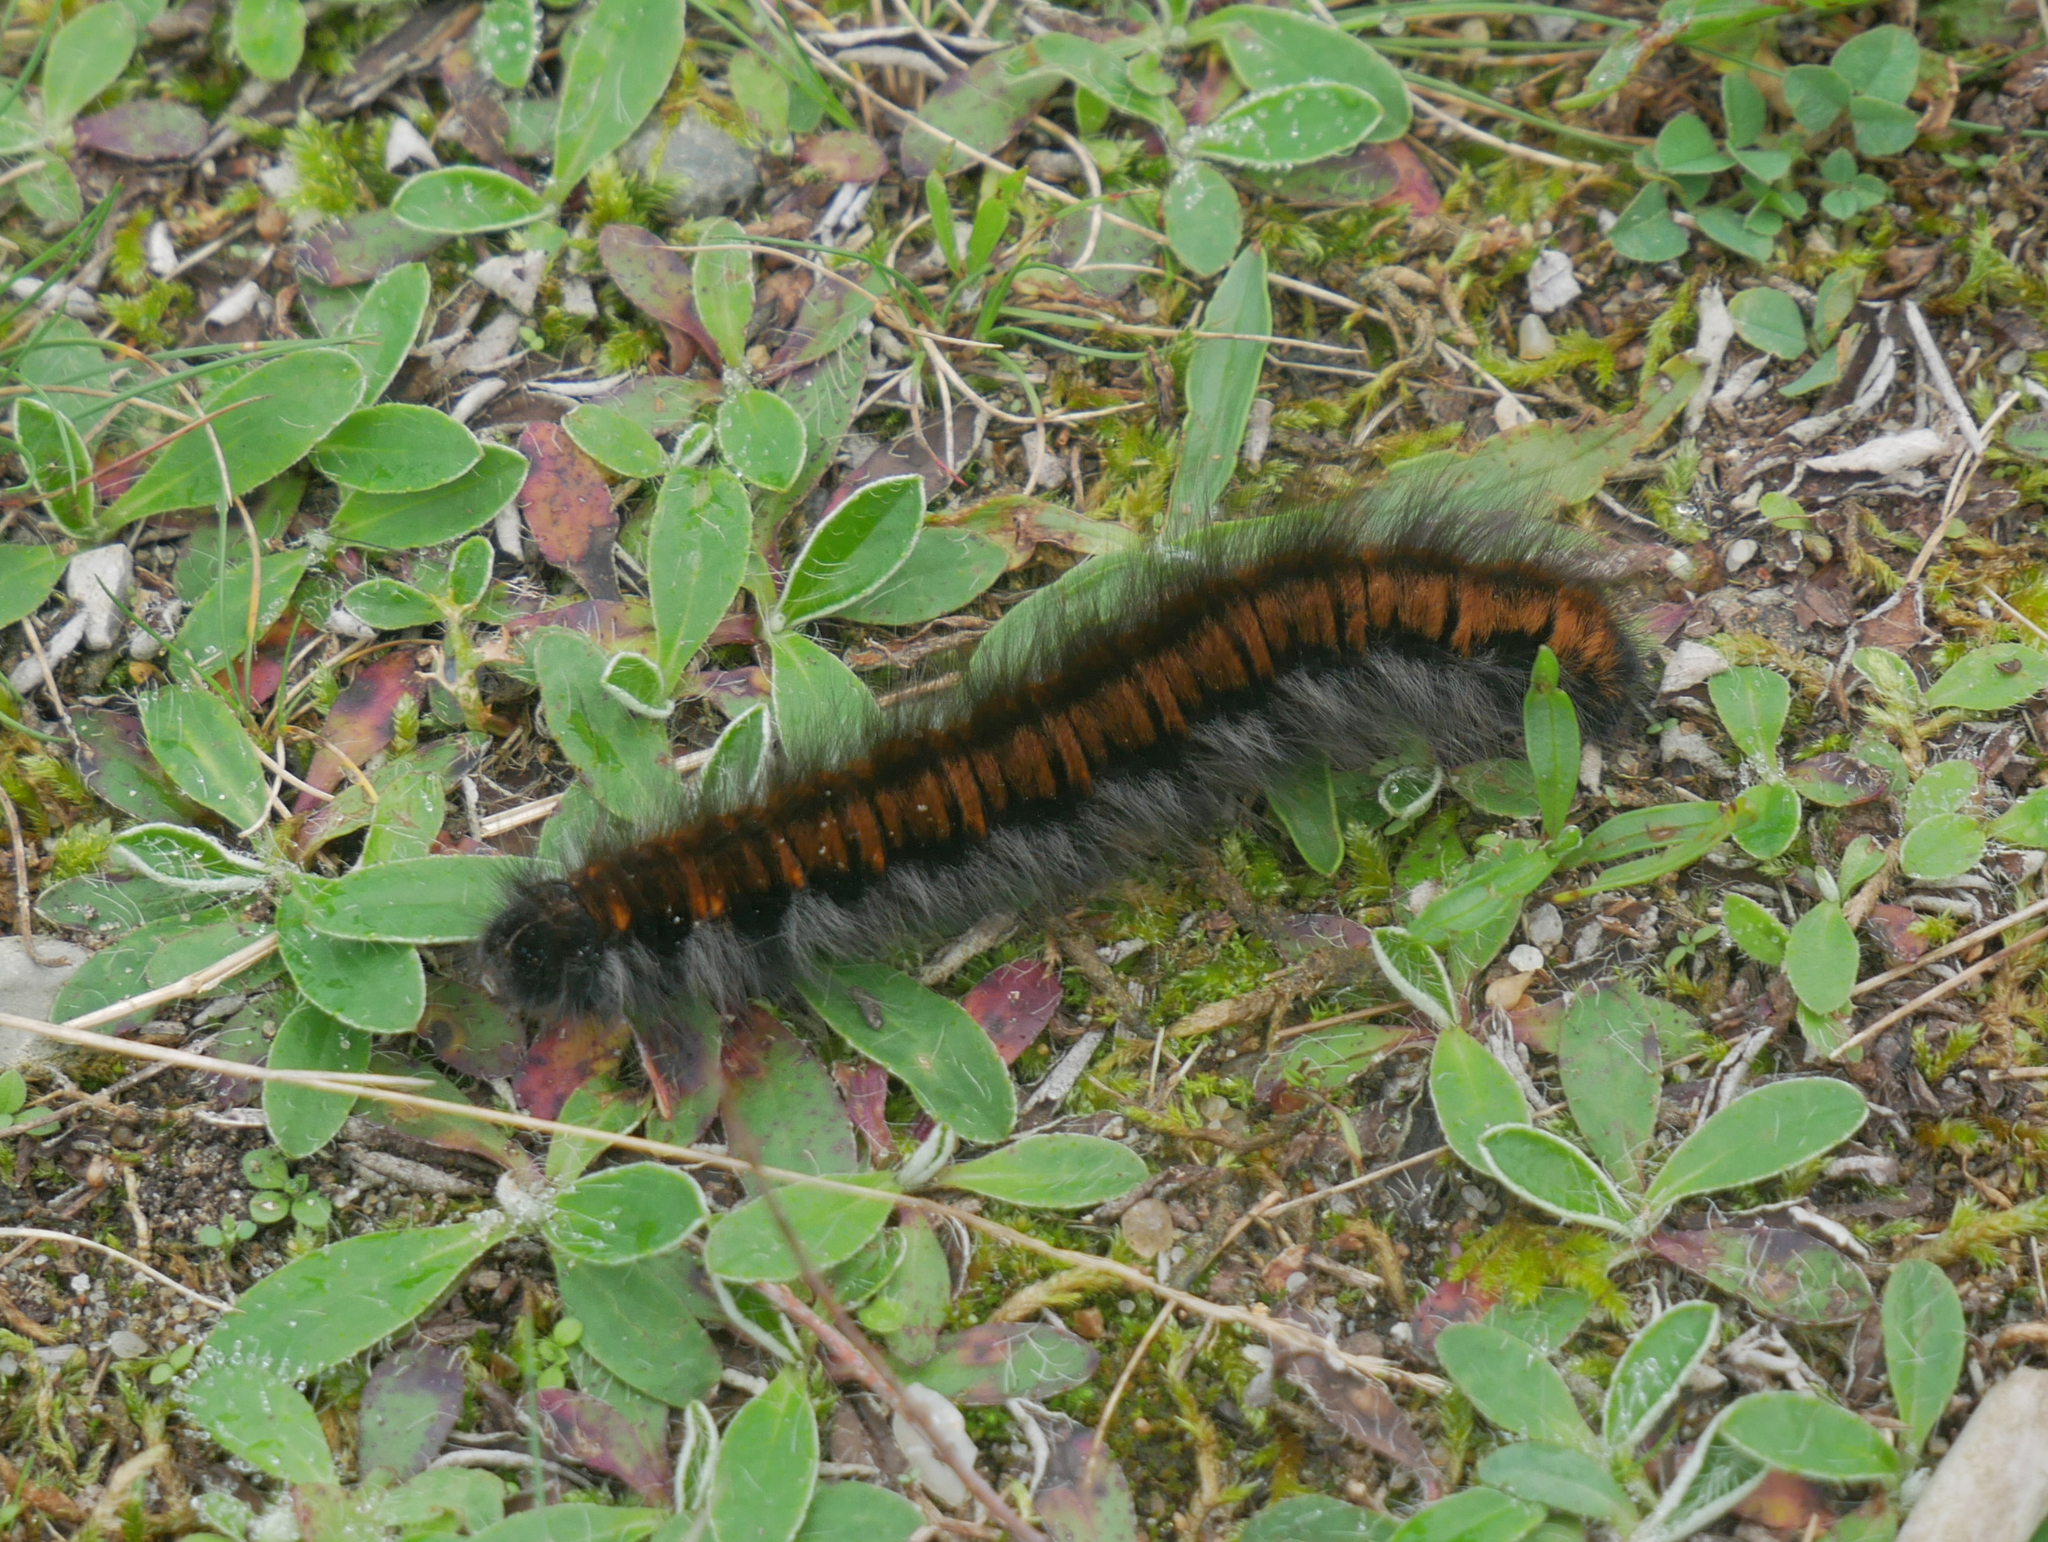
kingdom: Animalia
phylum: Arthropoda
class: Insecta
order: Lepidoptera
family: Lasiocampidae
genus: Macrothylacia
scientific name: Macrothylacia rubi
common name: Fox moth
